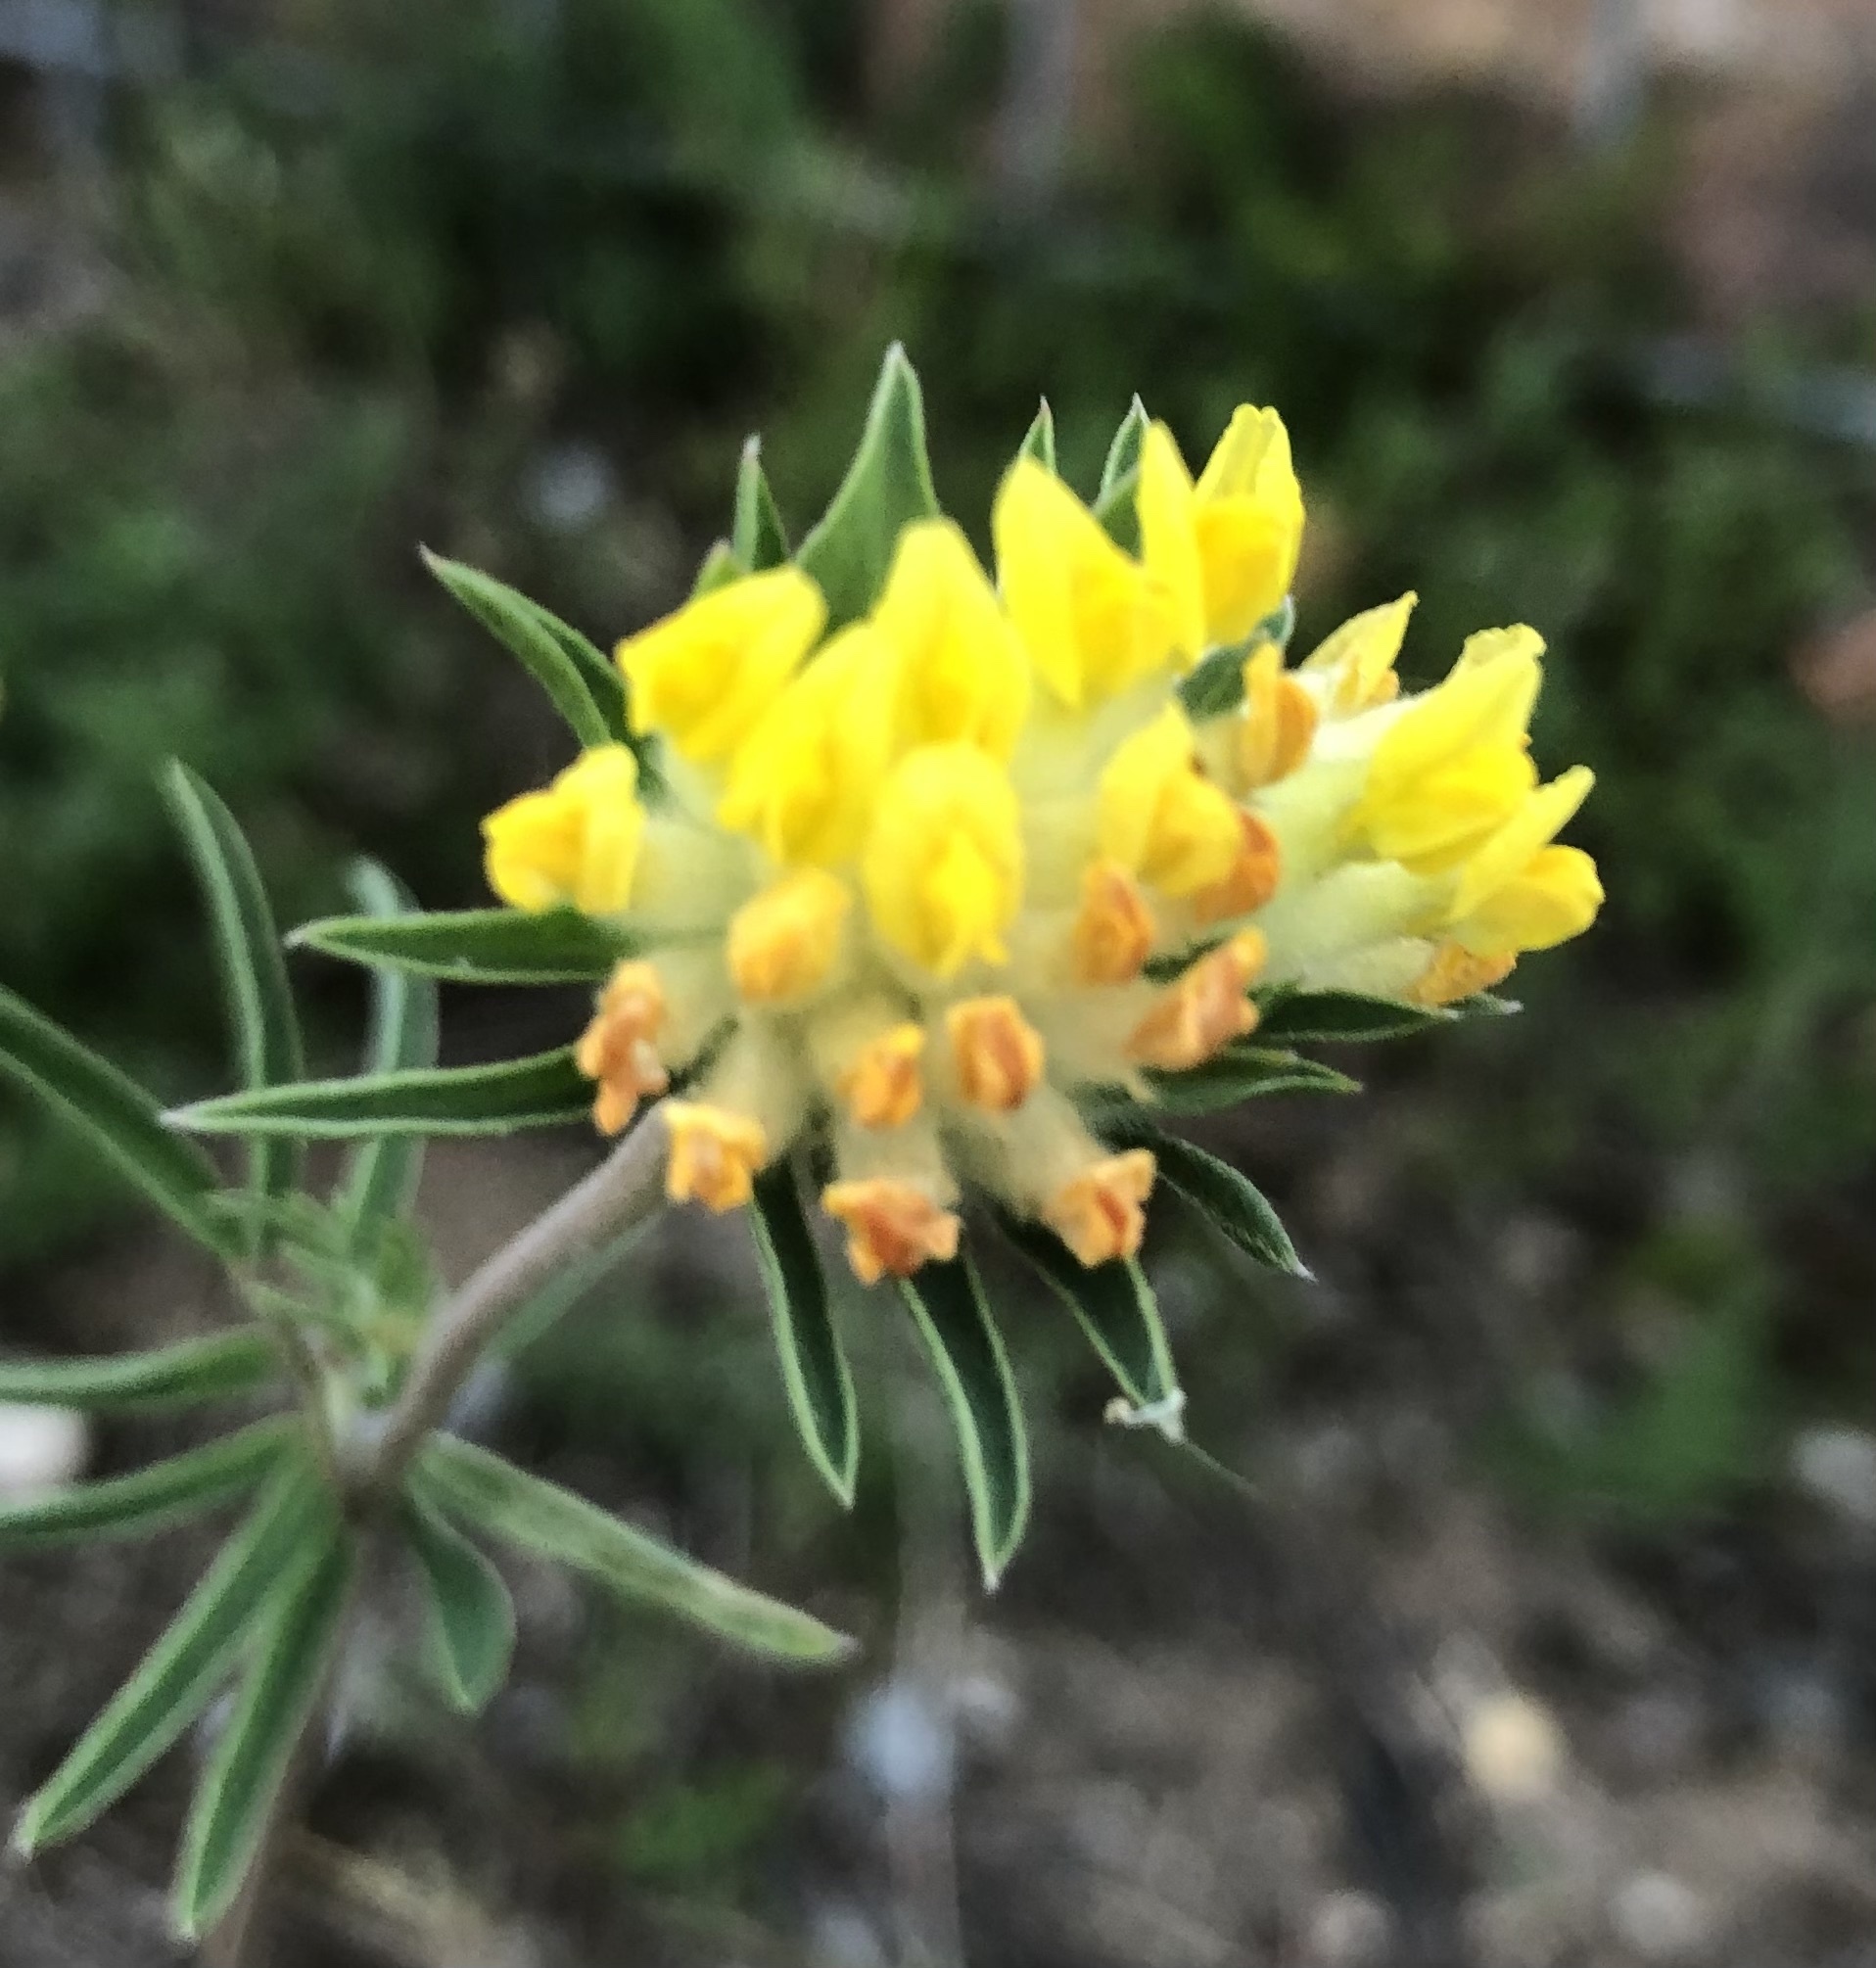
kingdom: Plantae
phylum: Tracheophyta
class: Magnoliopsida
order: Fabales
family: Fabaceae
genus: Anthyllis
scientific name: Anthyllis vulneraria
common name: Kidney vetch
